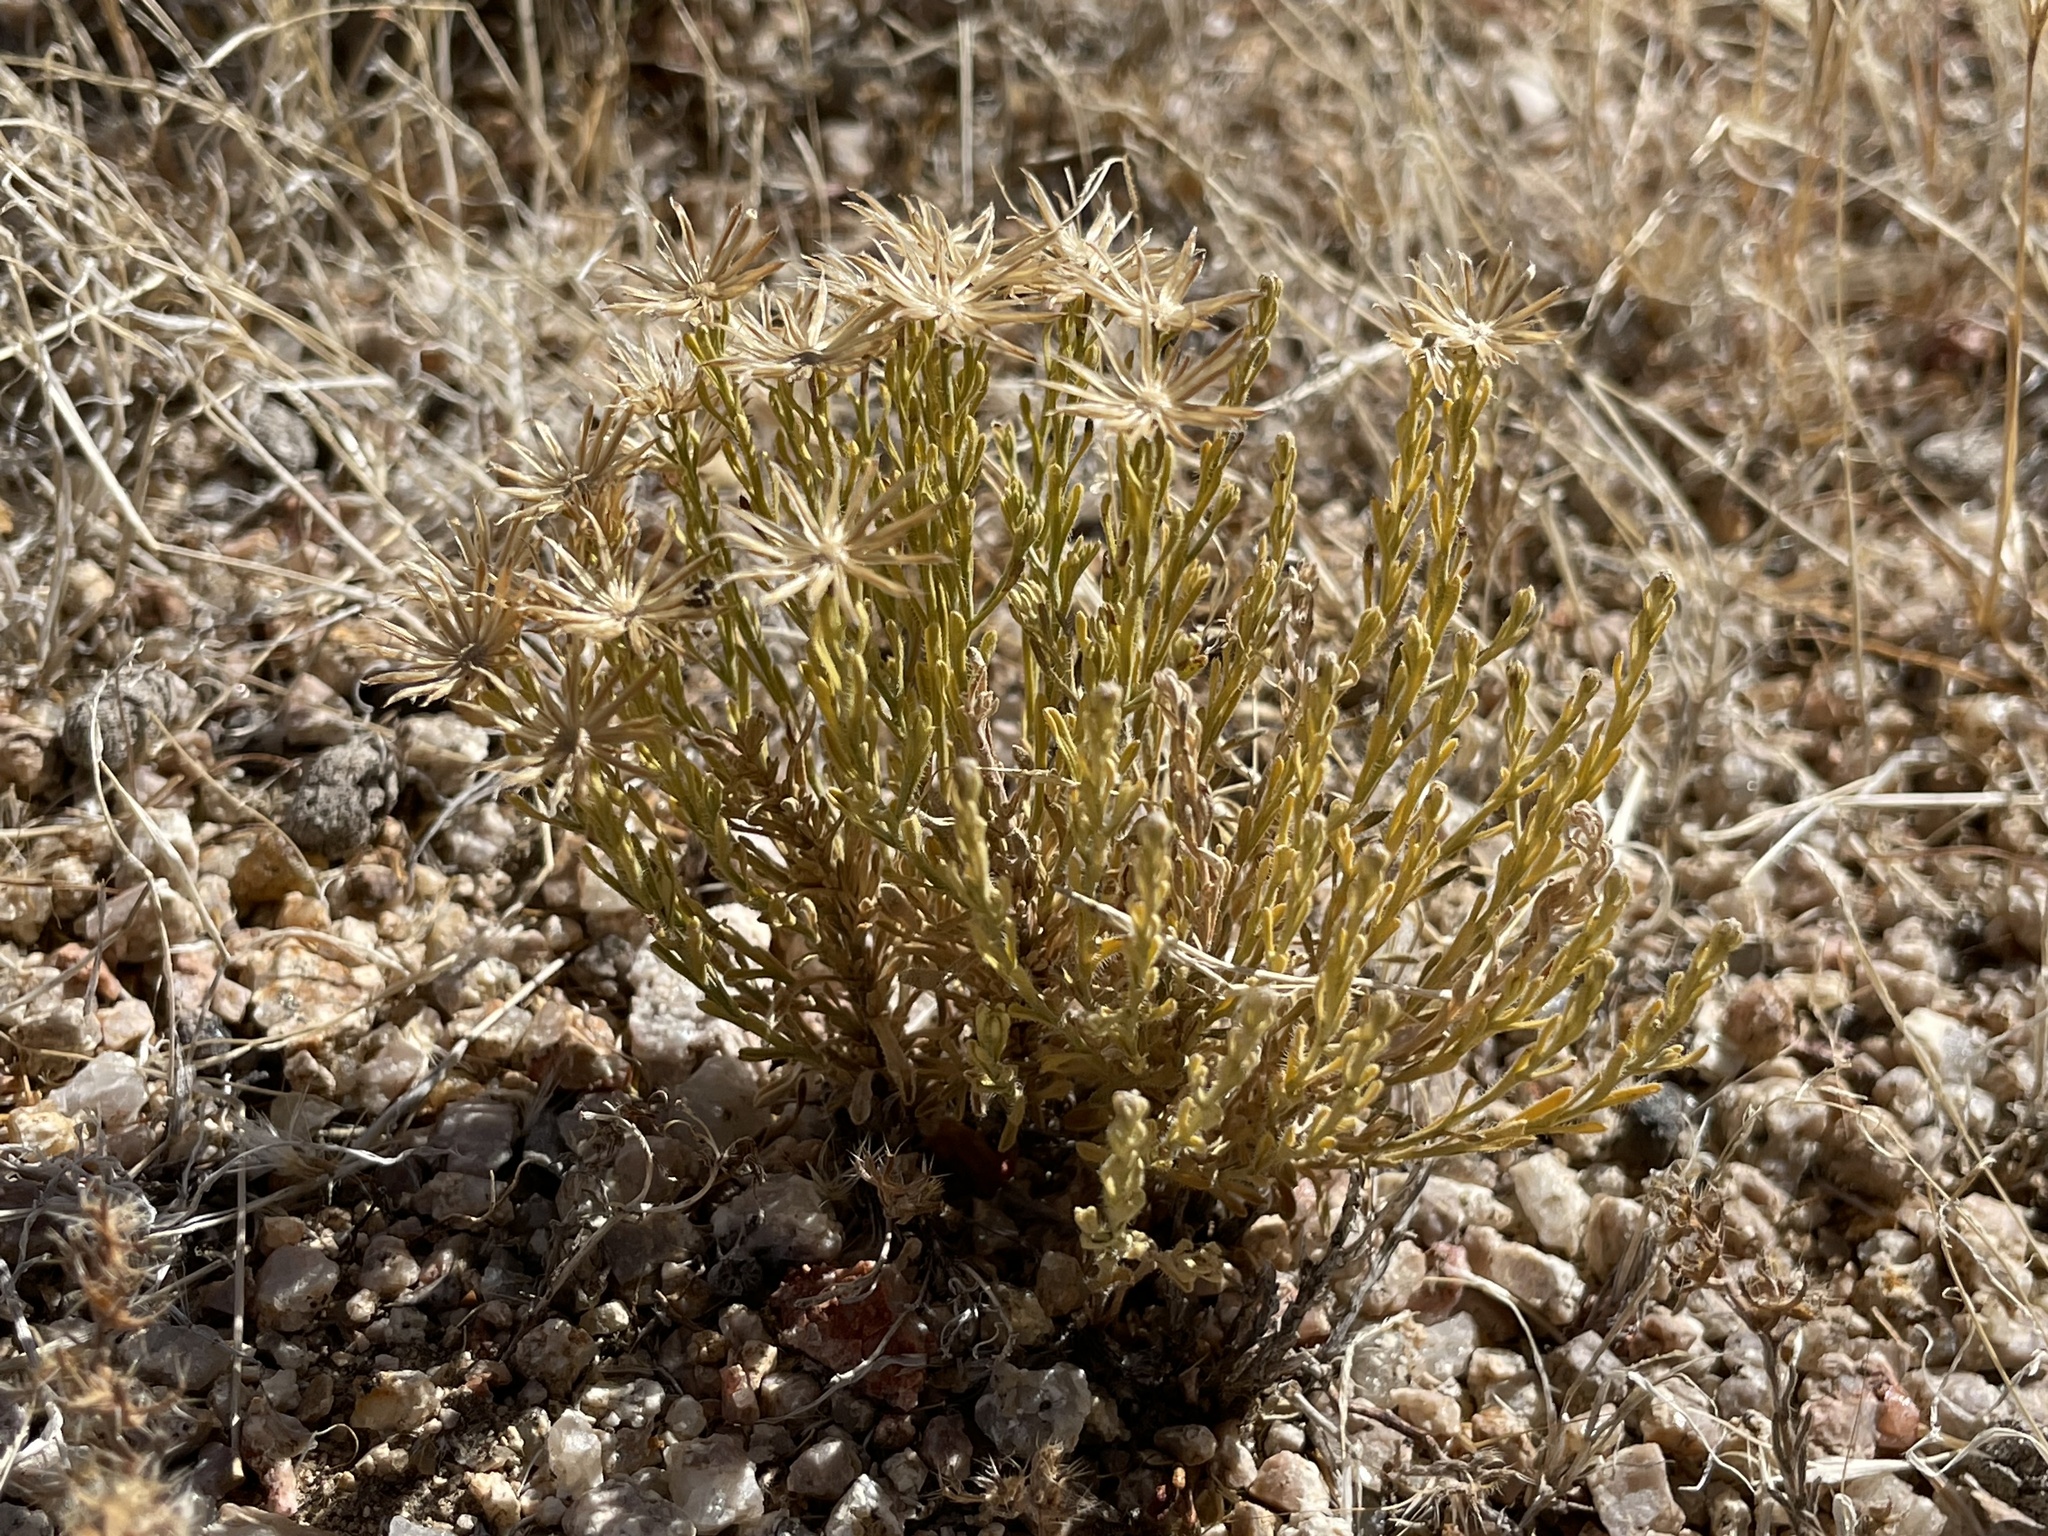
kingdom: Plantae
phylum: Tracheophyta
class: Magnoliopsida
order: Asterales
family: Asteraceae
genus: Chaetopappa
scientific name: Chaetopappa ericoides
